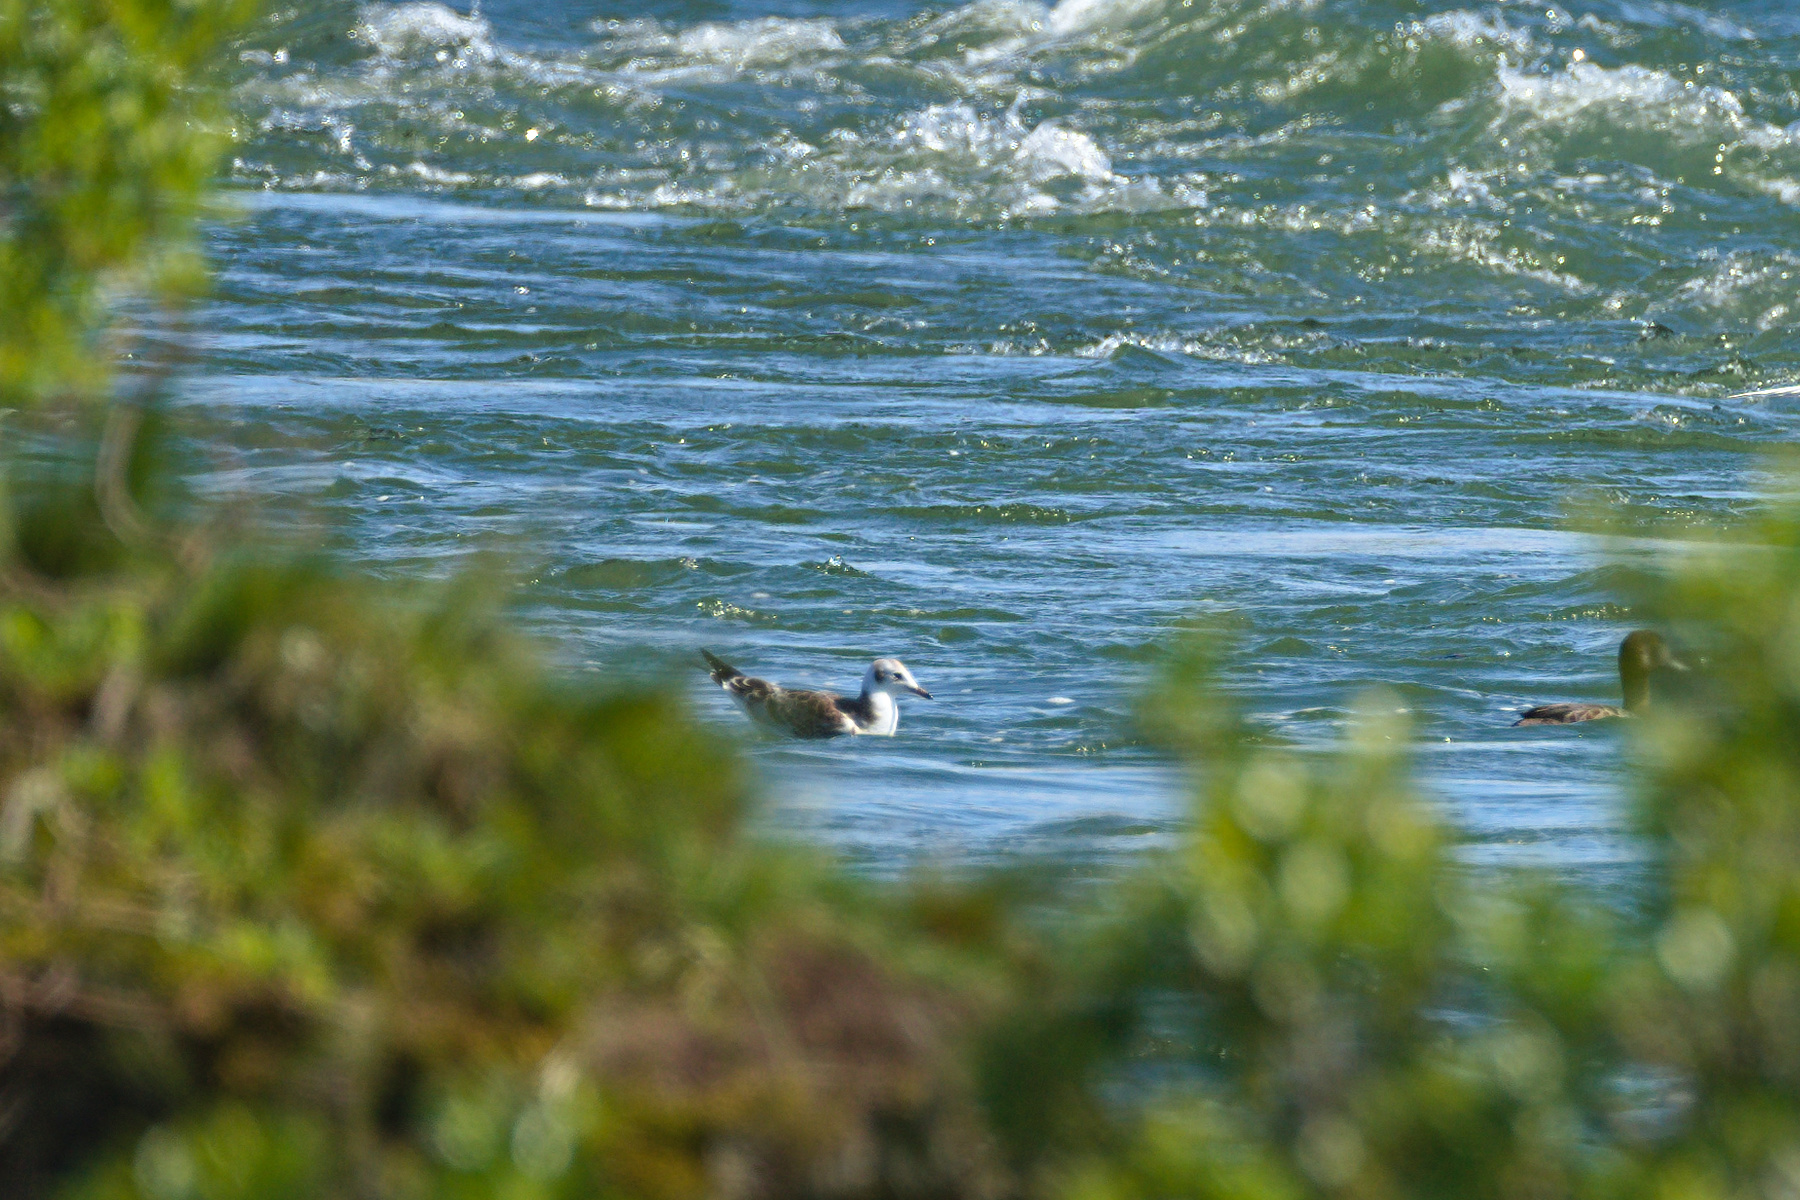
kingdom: Animalia
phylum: Chordata
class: Aves
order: Charadriiformes
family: Laridae
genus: Chroicocephalus
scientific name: Chroicocephalus ridibundus
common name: Black-headed gull
